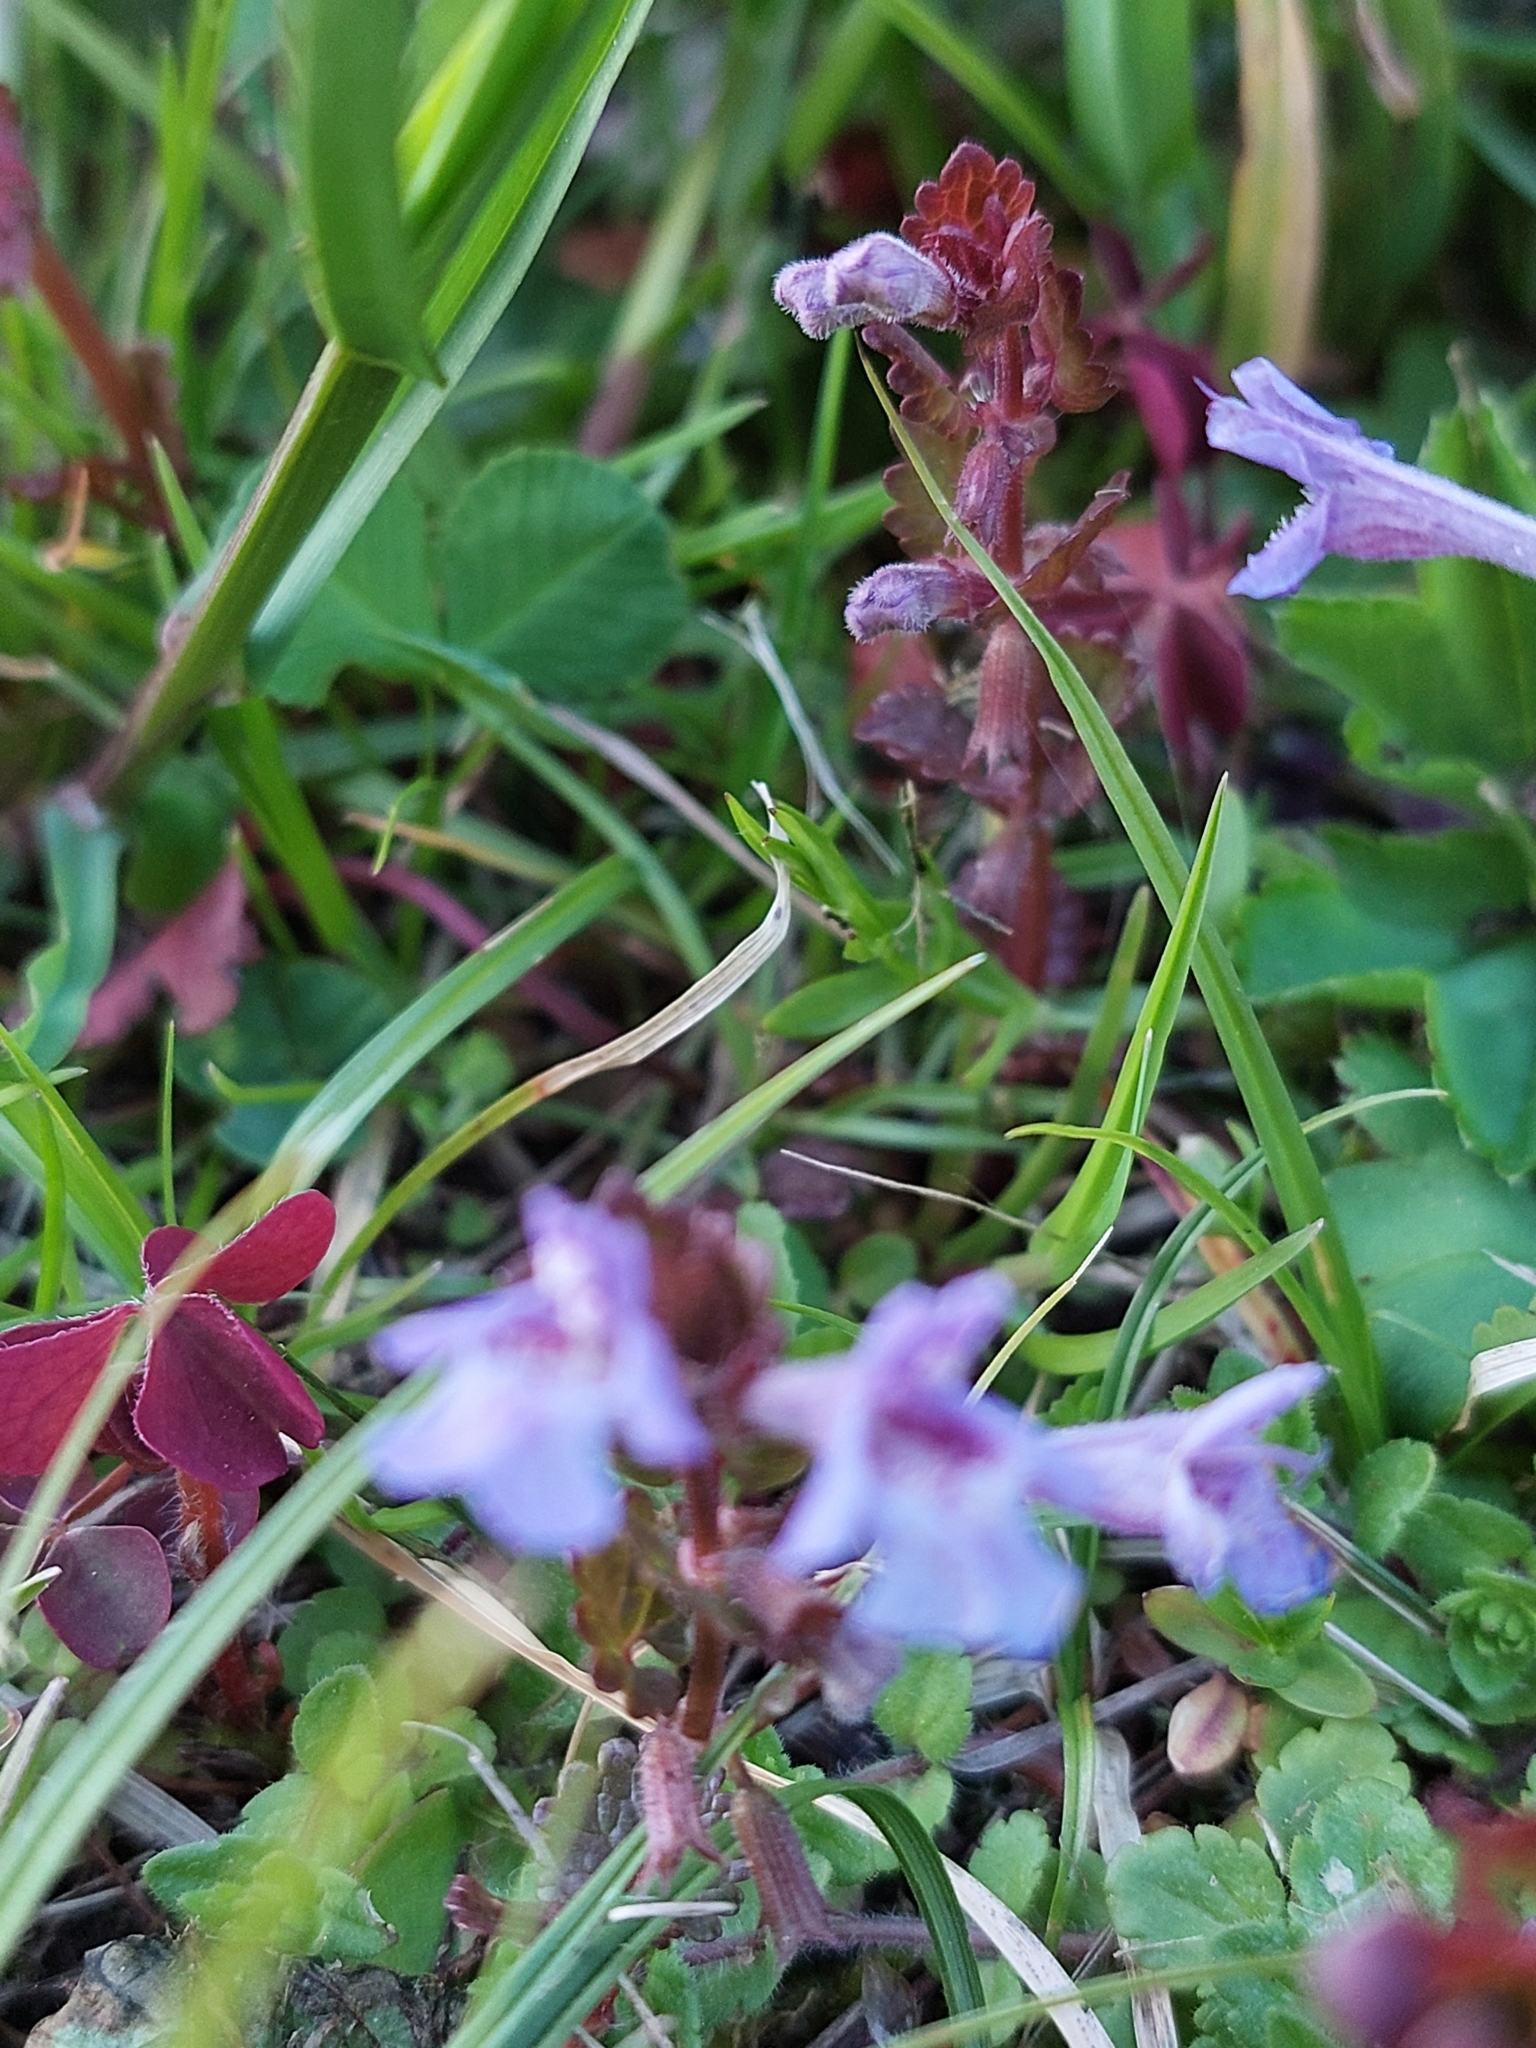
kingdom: Plantae
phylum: Tracheophyta
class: Magnoliopsida
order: Lamiales
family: Lamiaceae
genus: Glechoma
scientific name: Glechoma hederacea
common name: Ground ivy
